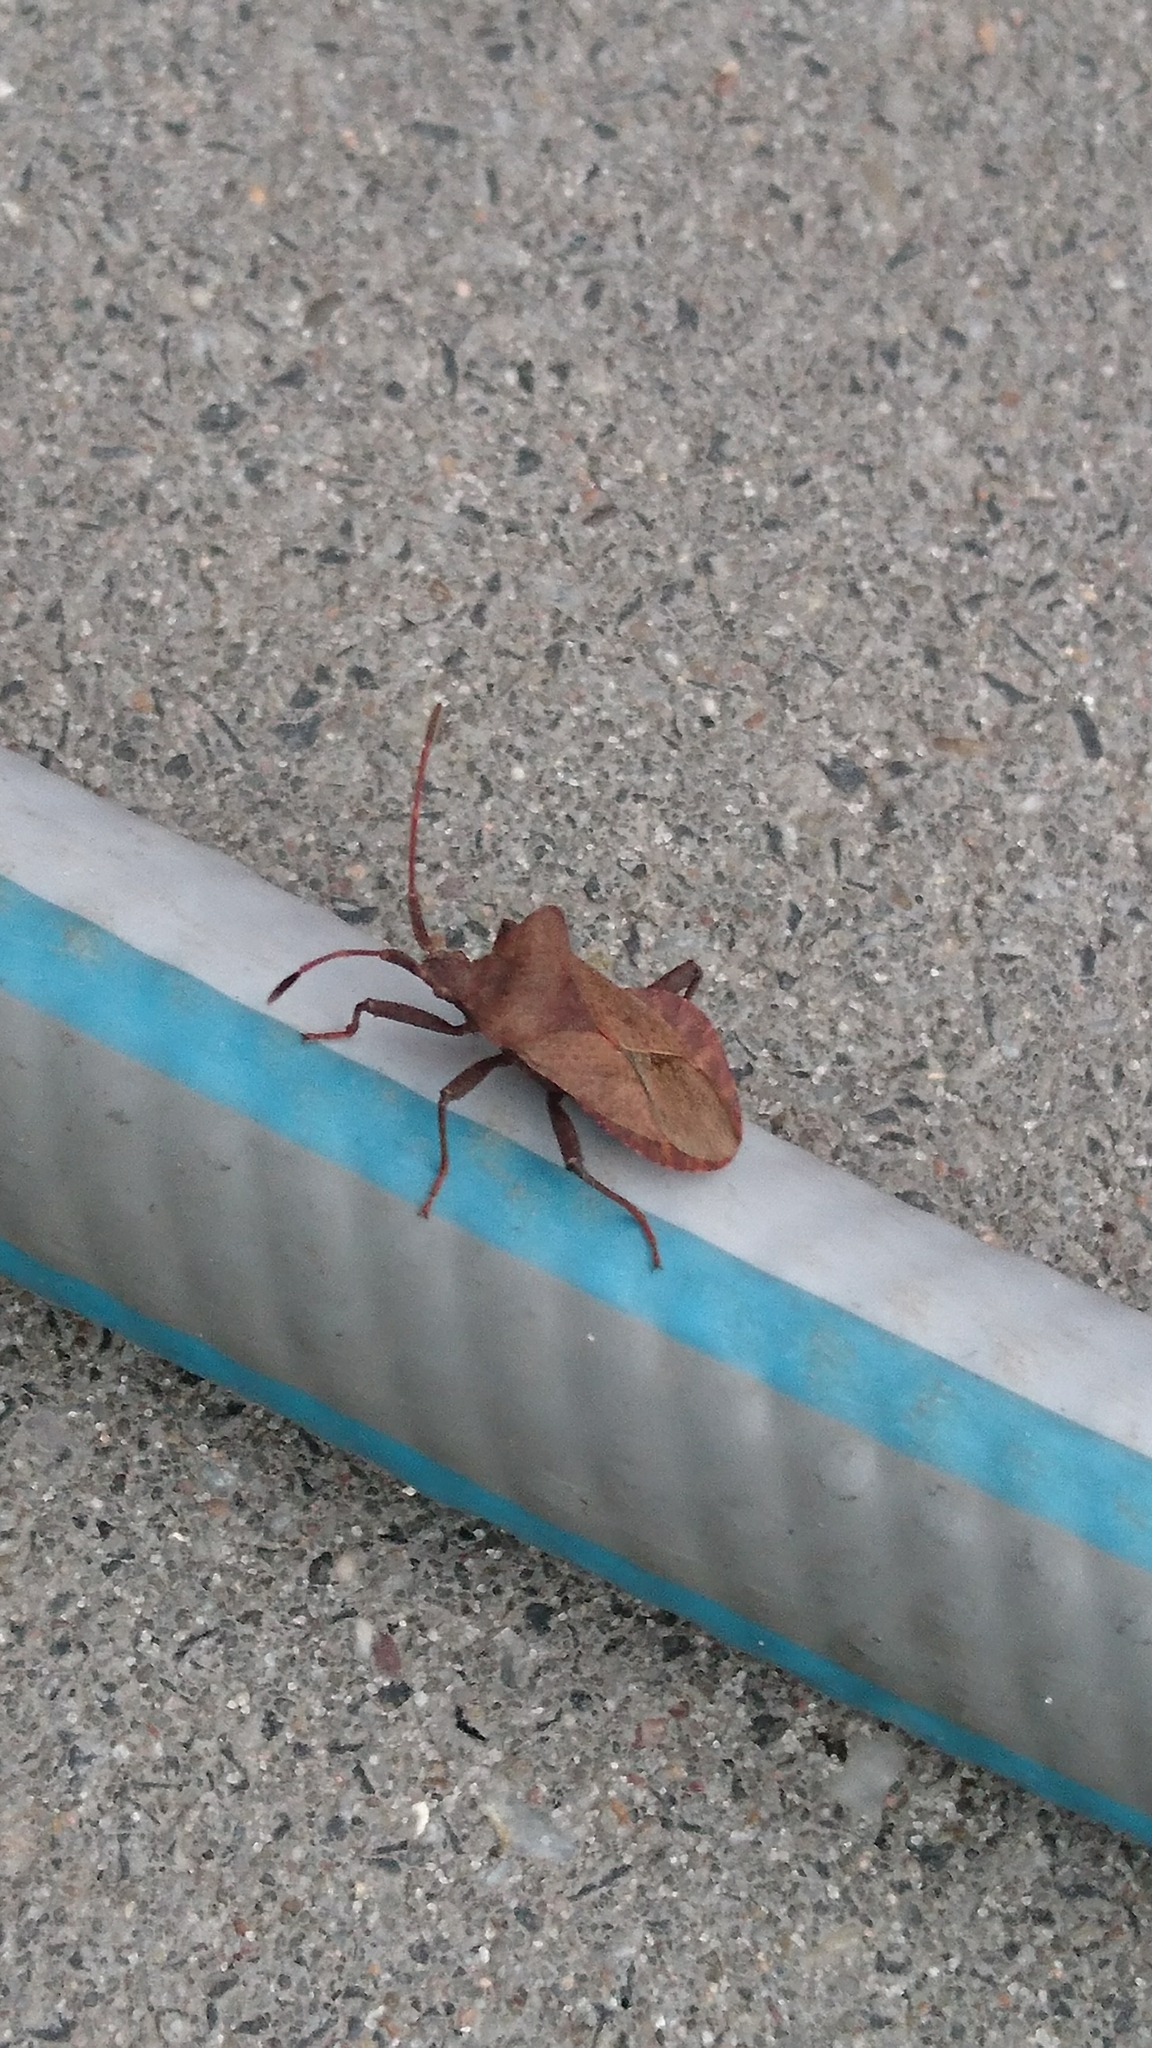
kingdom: Animalia
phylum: Arthropoda
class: Insecta
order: Hemiptera
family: Coreidae
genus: Coreus
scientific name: Coreus marginatus
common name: Dock bug
